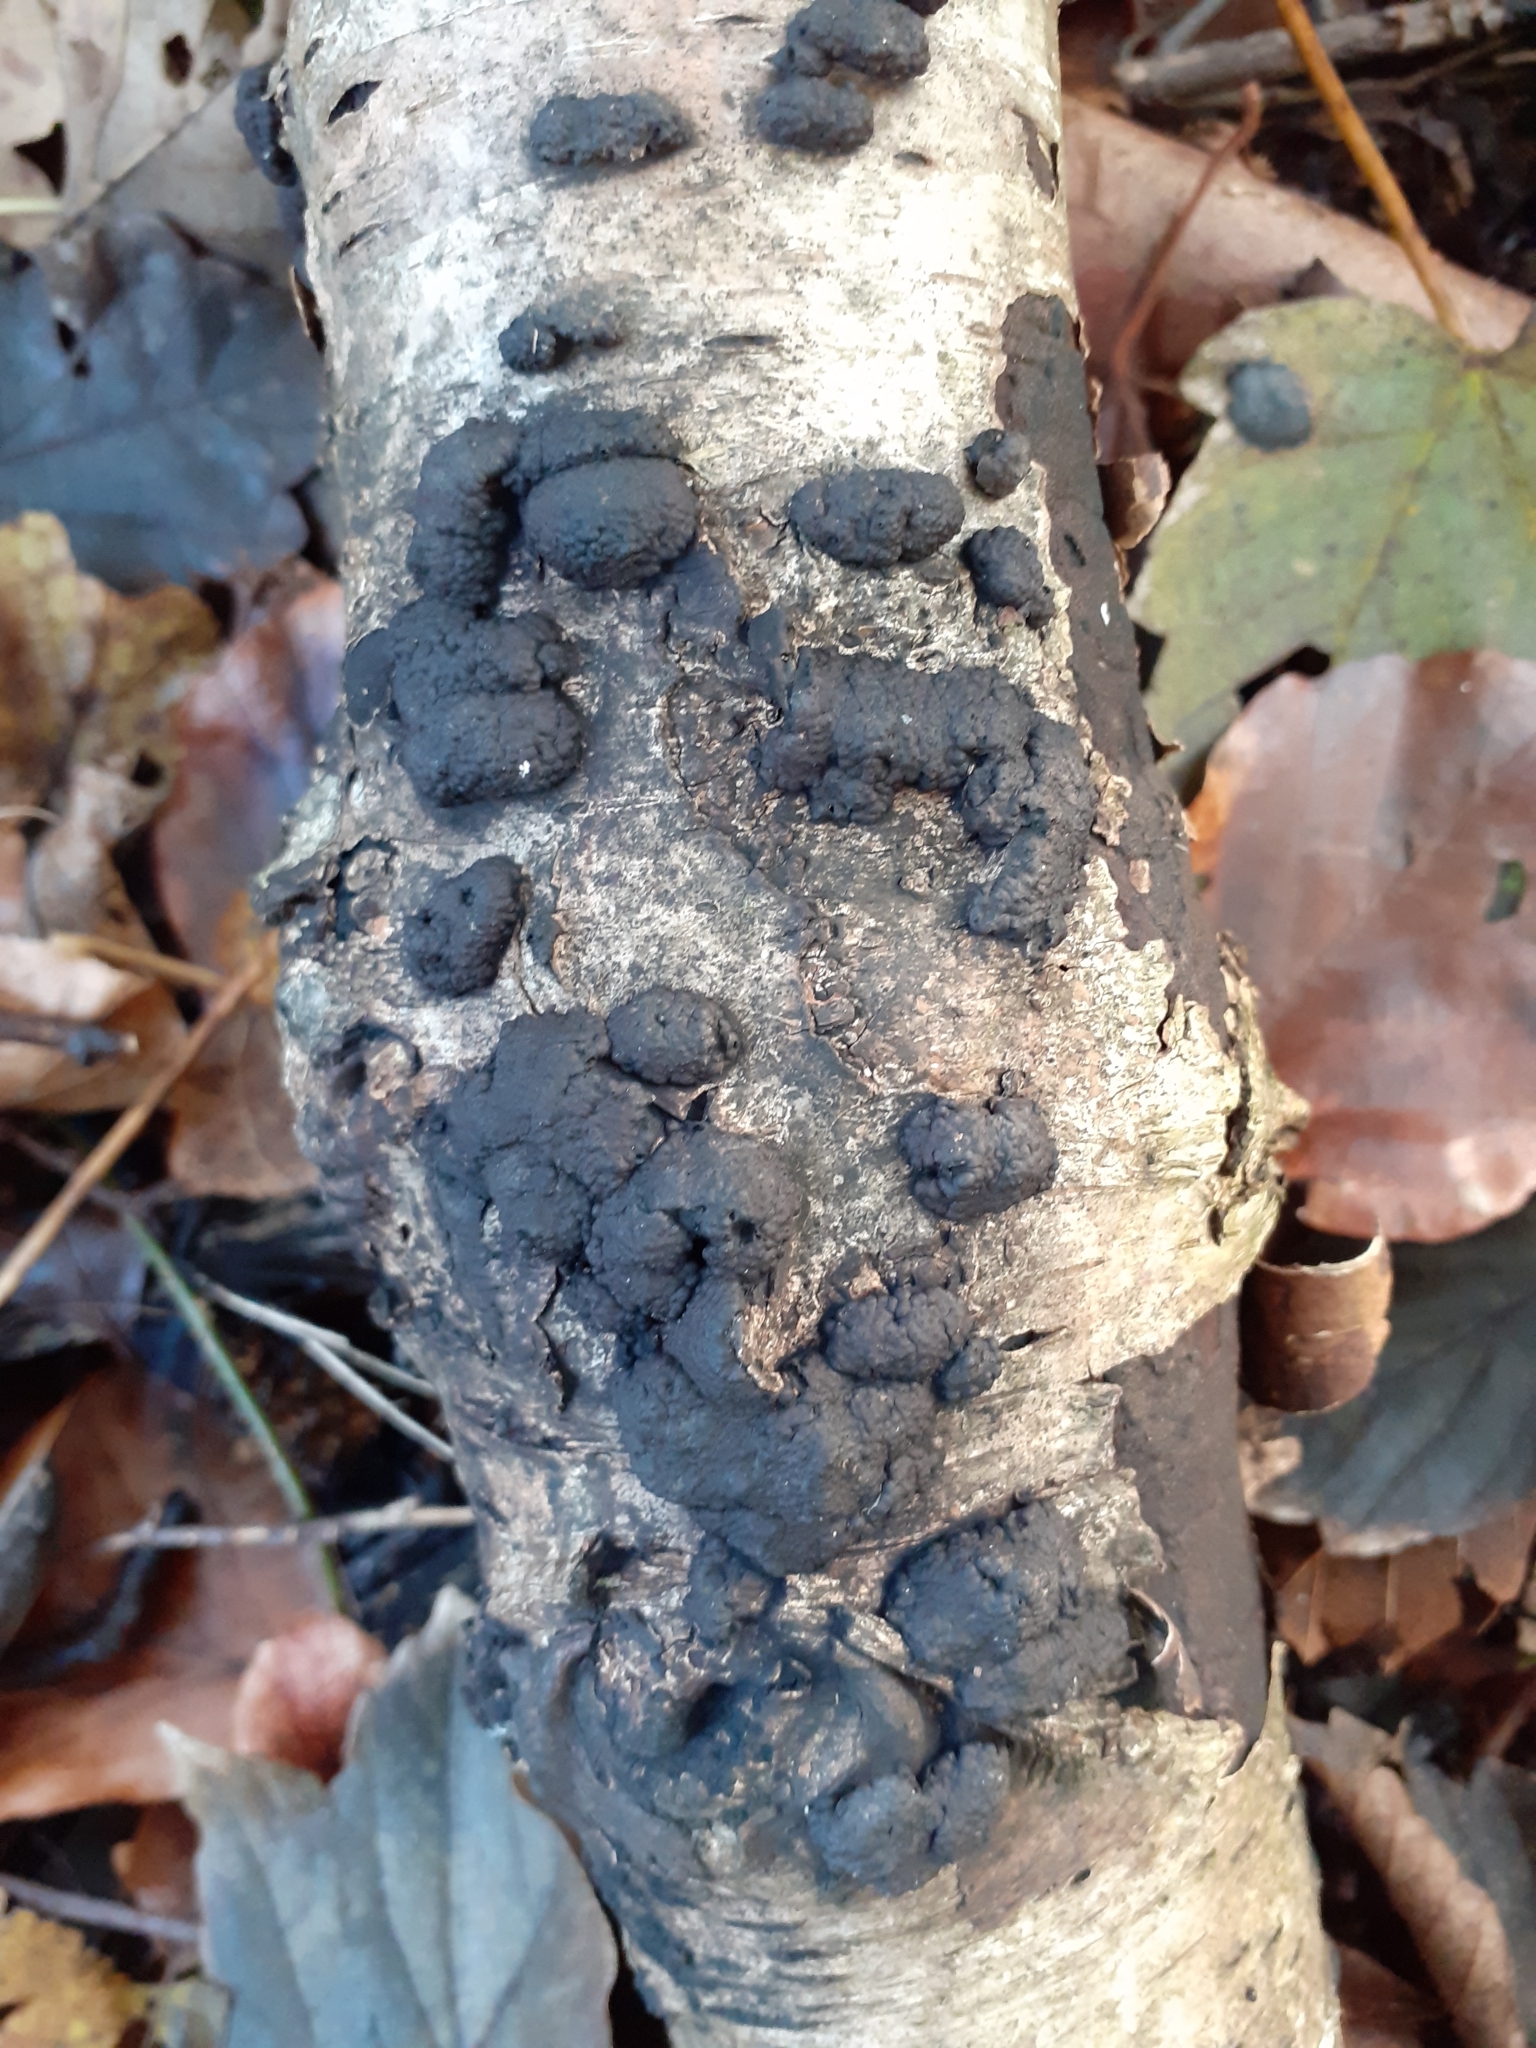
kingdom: Fungi
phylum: Ascomycota
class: Sordariomycetes
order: Xylariales
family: Hypoxylaceae
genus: Jackrogersella
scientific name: Jackrogersella multiformis
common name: Birch woodwart
